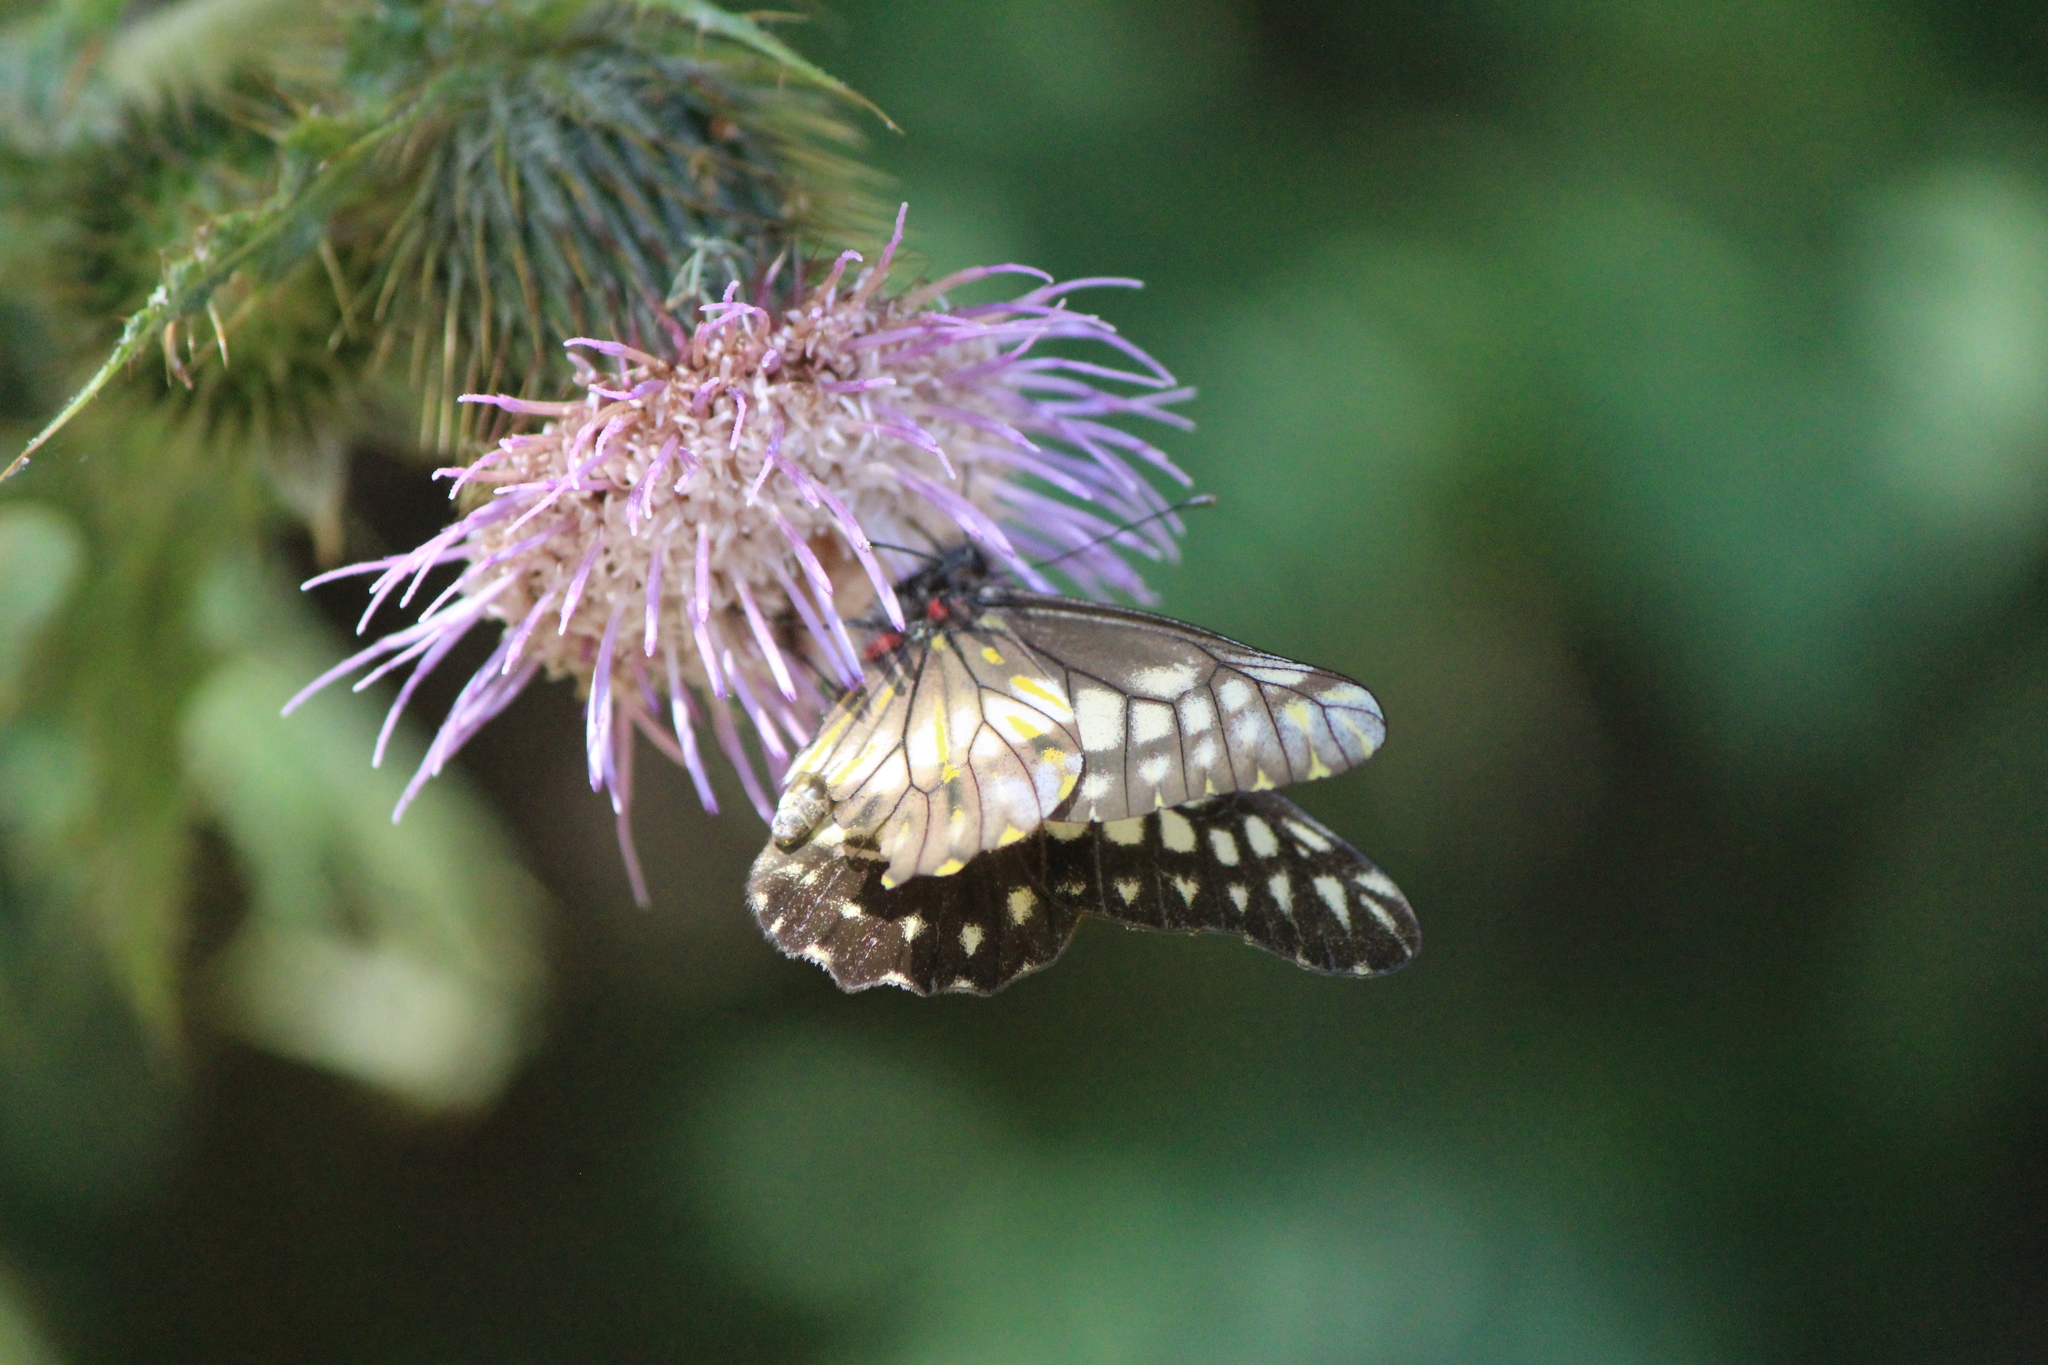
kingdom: Animalia
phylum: Arthropoda
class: Insecta
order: Lepidoptera
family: Pieridae
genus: Archonias
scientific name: Archonias nimbice
